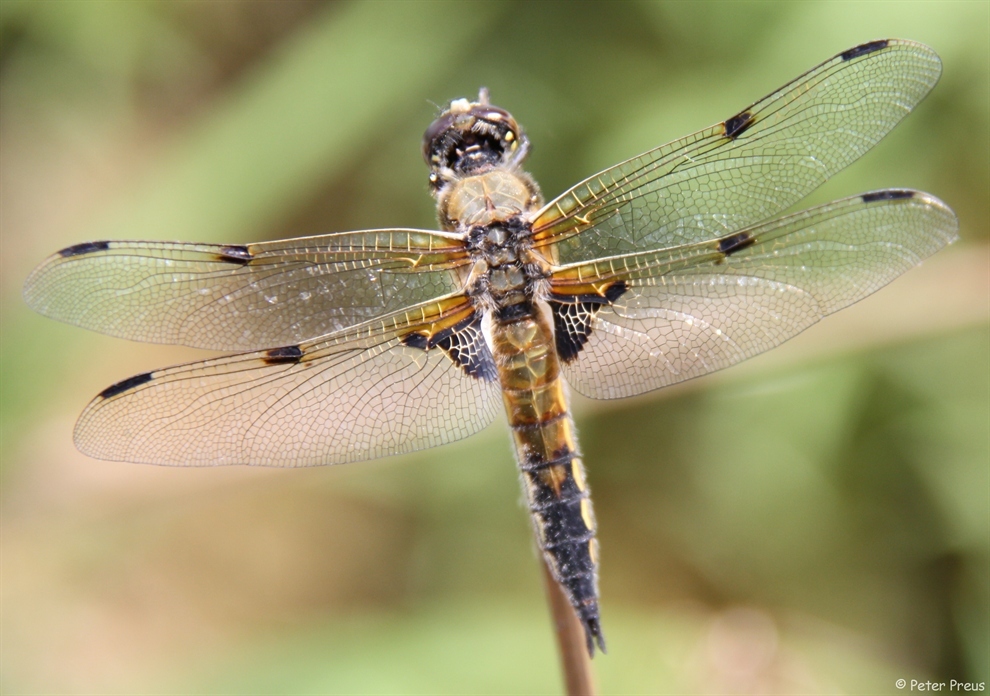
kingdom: Animalia
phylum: Arthropoda
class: Insecta
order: Odonata
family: Libellulidae
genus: Libellula
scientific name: Libellula quadrimaculata
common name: Four-spotted chaser
